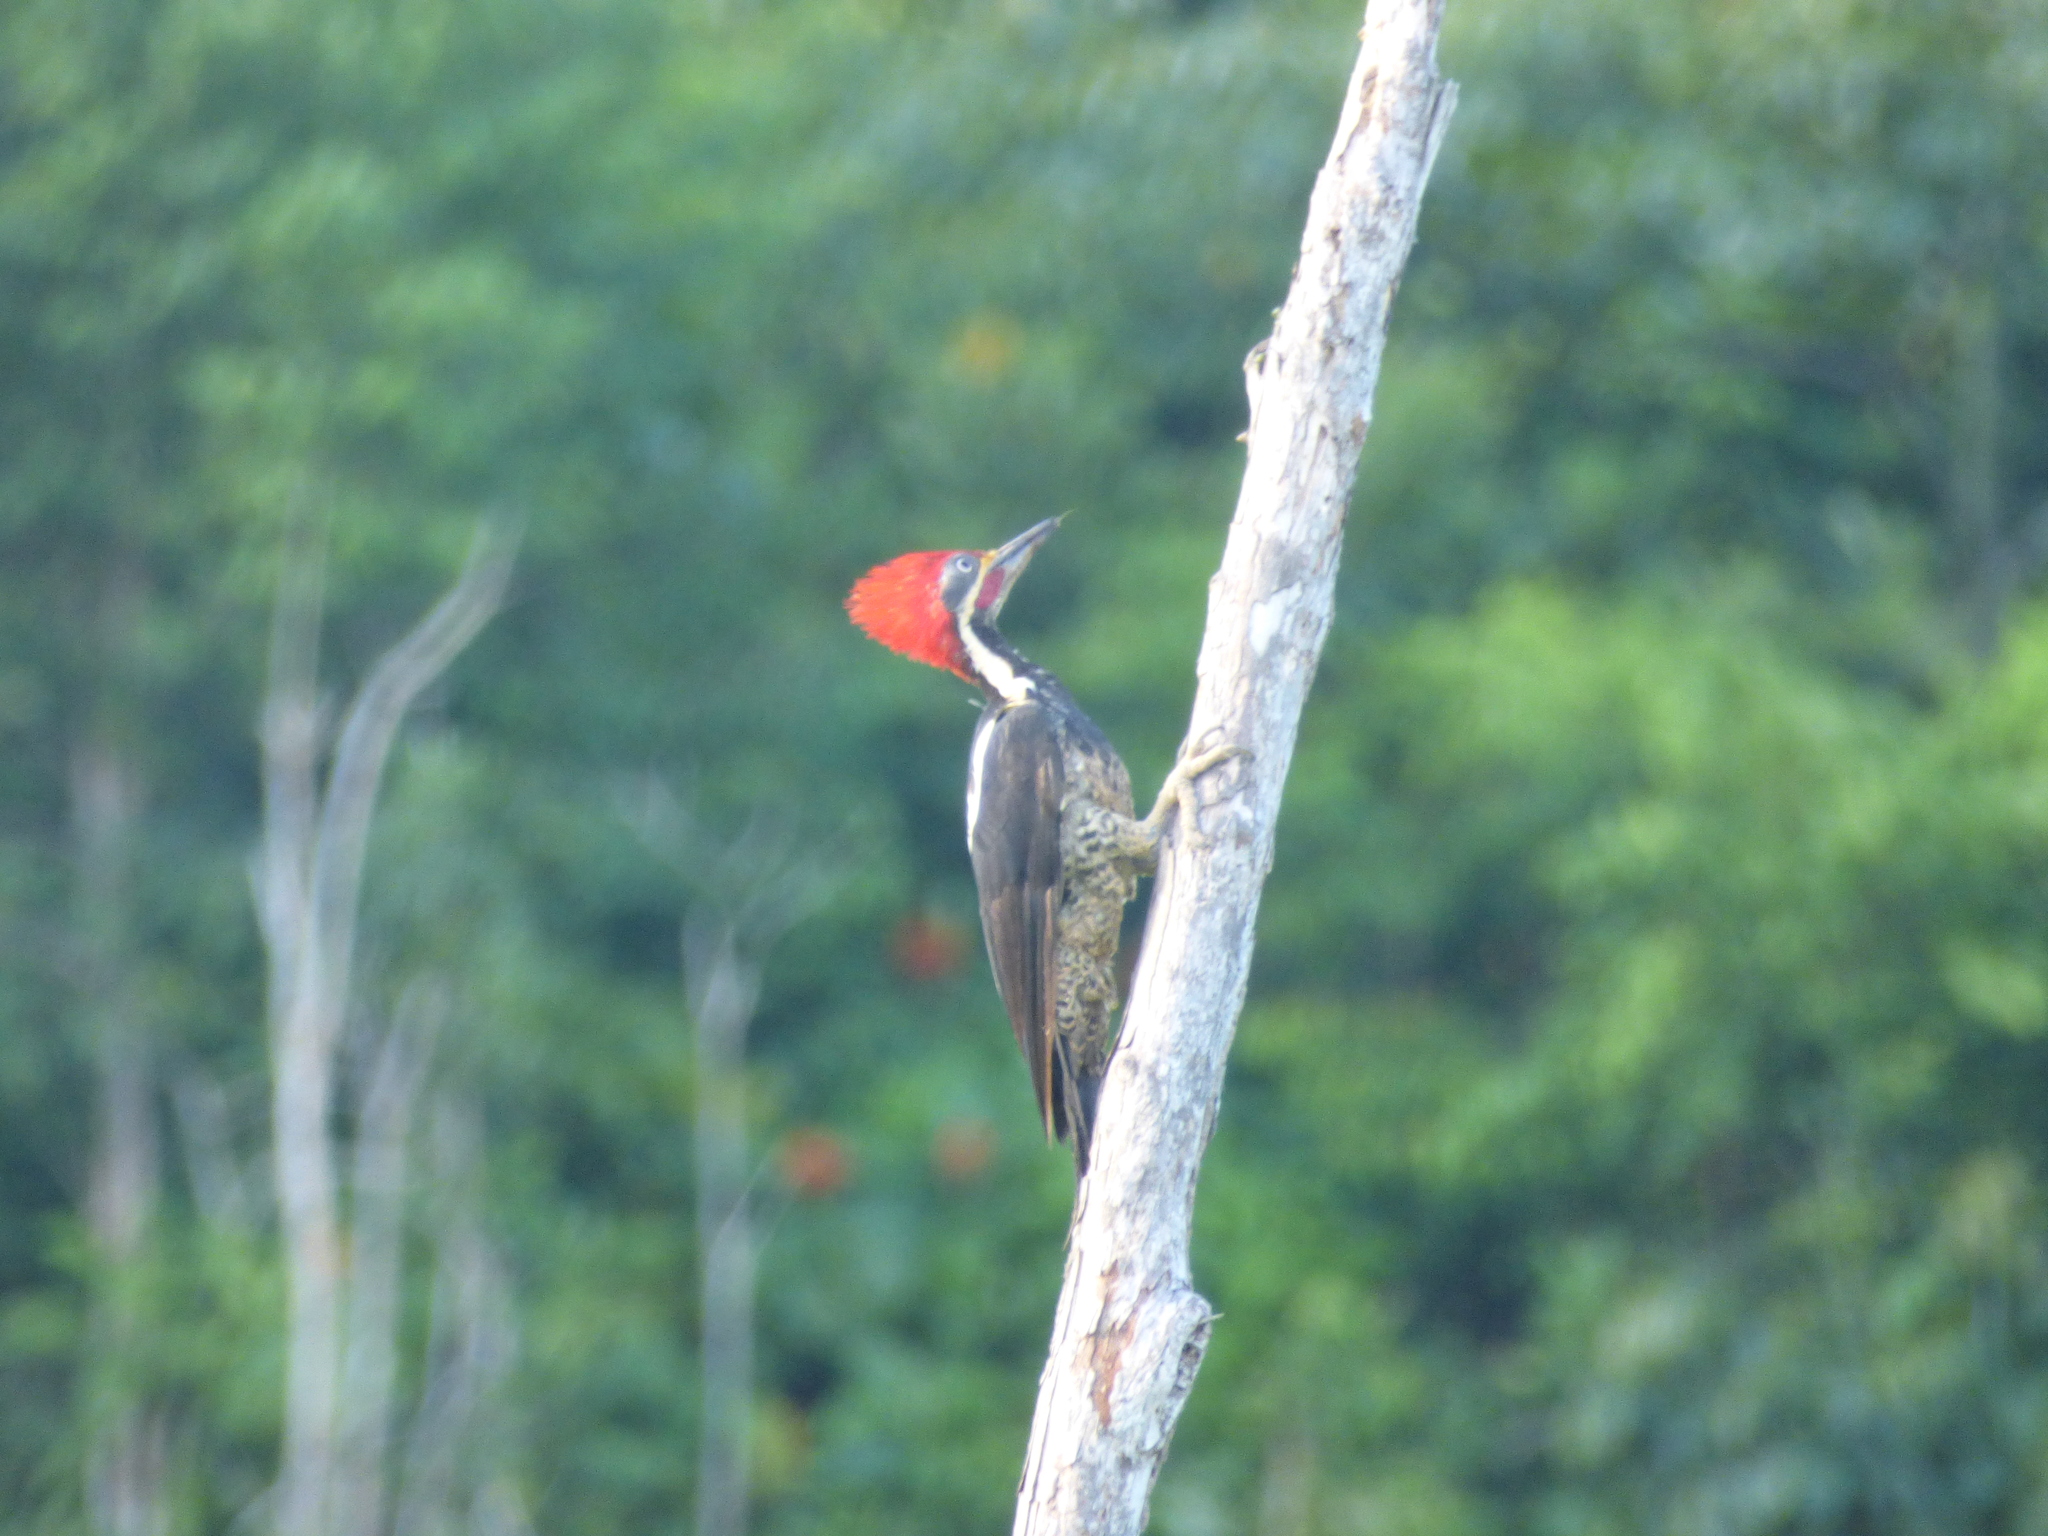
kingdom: Animalia
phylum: Chordata
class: Aves
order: Piciformes
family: Picidae
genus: Dryocopus
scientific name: Dryocopus lineatus
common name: Lineated woodpecker
